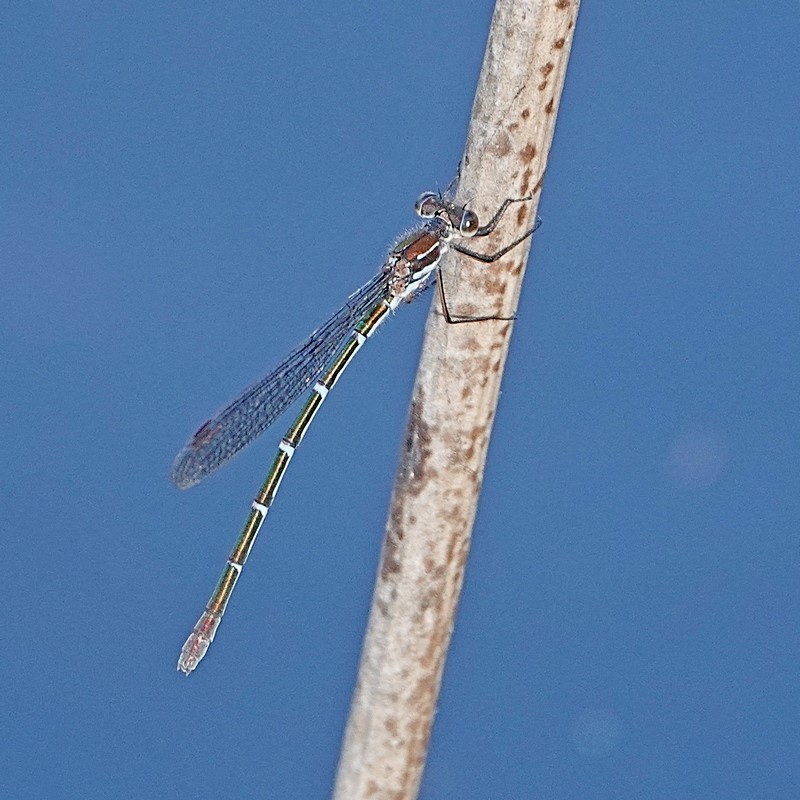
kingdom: Animalia
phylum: Arthropoda
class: Insecta
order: Odonata
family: Lestidae
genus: Austrolestes
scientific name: Austrolestes psyche
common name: Cup ringtail
